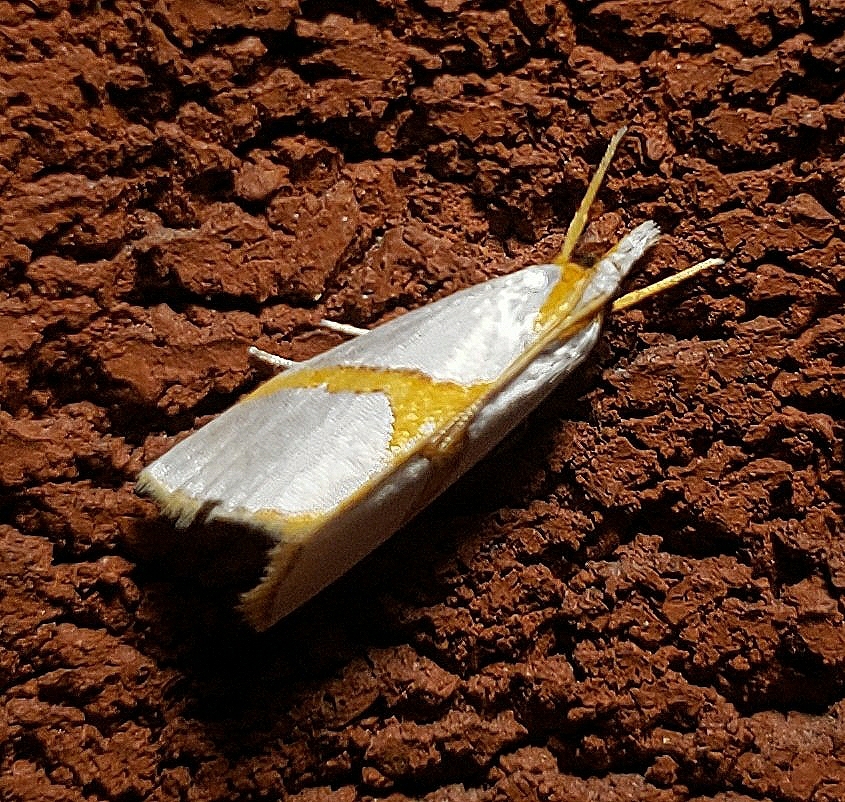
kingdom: Animalia
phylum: Arthropoda
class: Insecta
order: Lepidoptera
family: Crambidae
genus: Argyria
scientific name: Argyria auratella
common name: Curve-lined argyria moth
